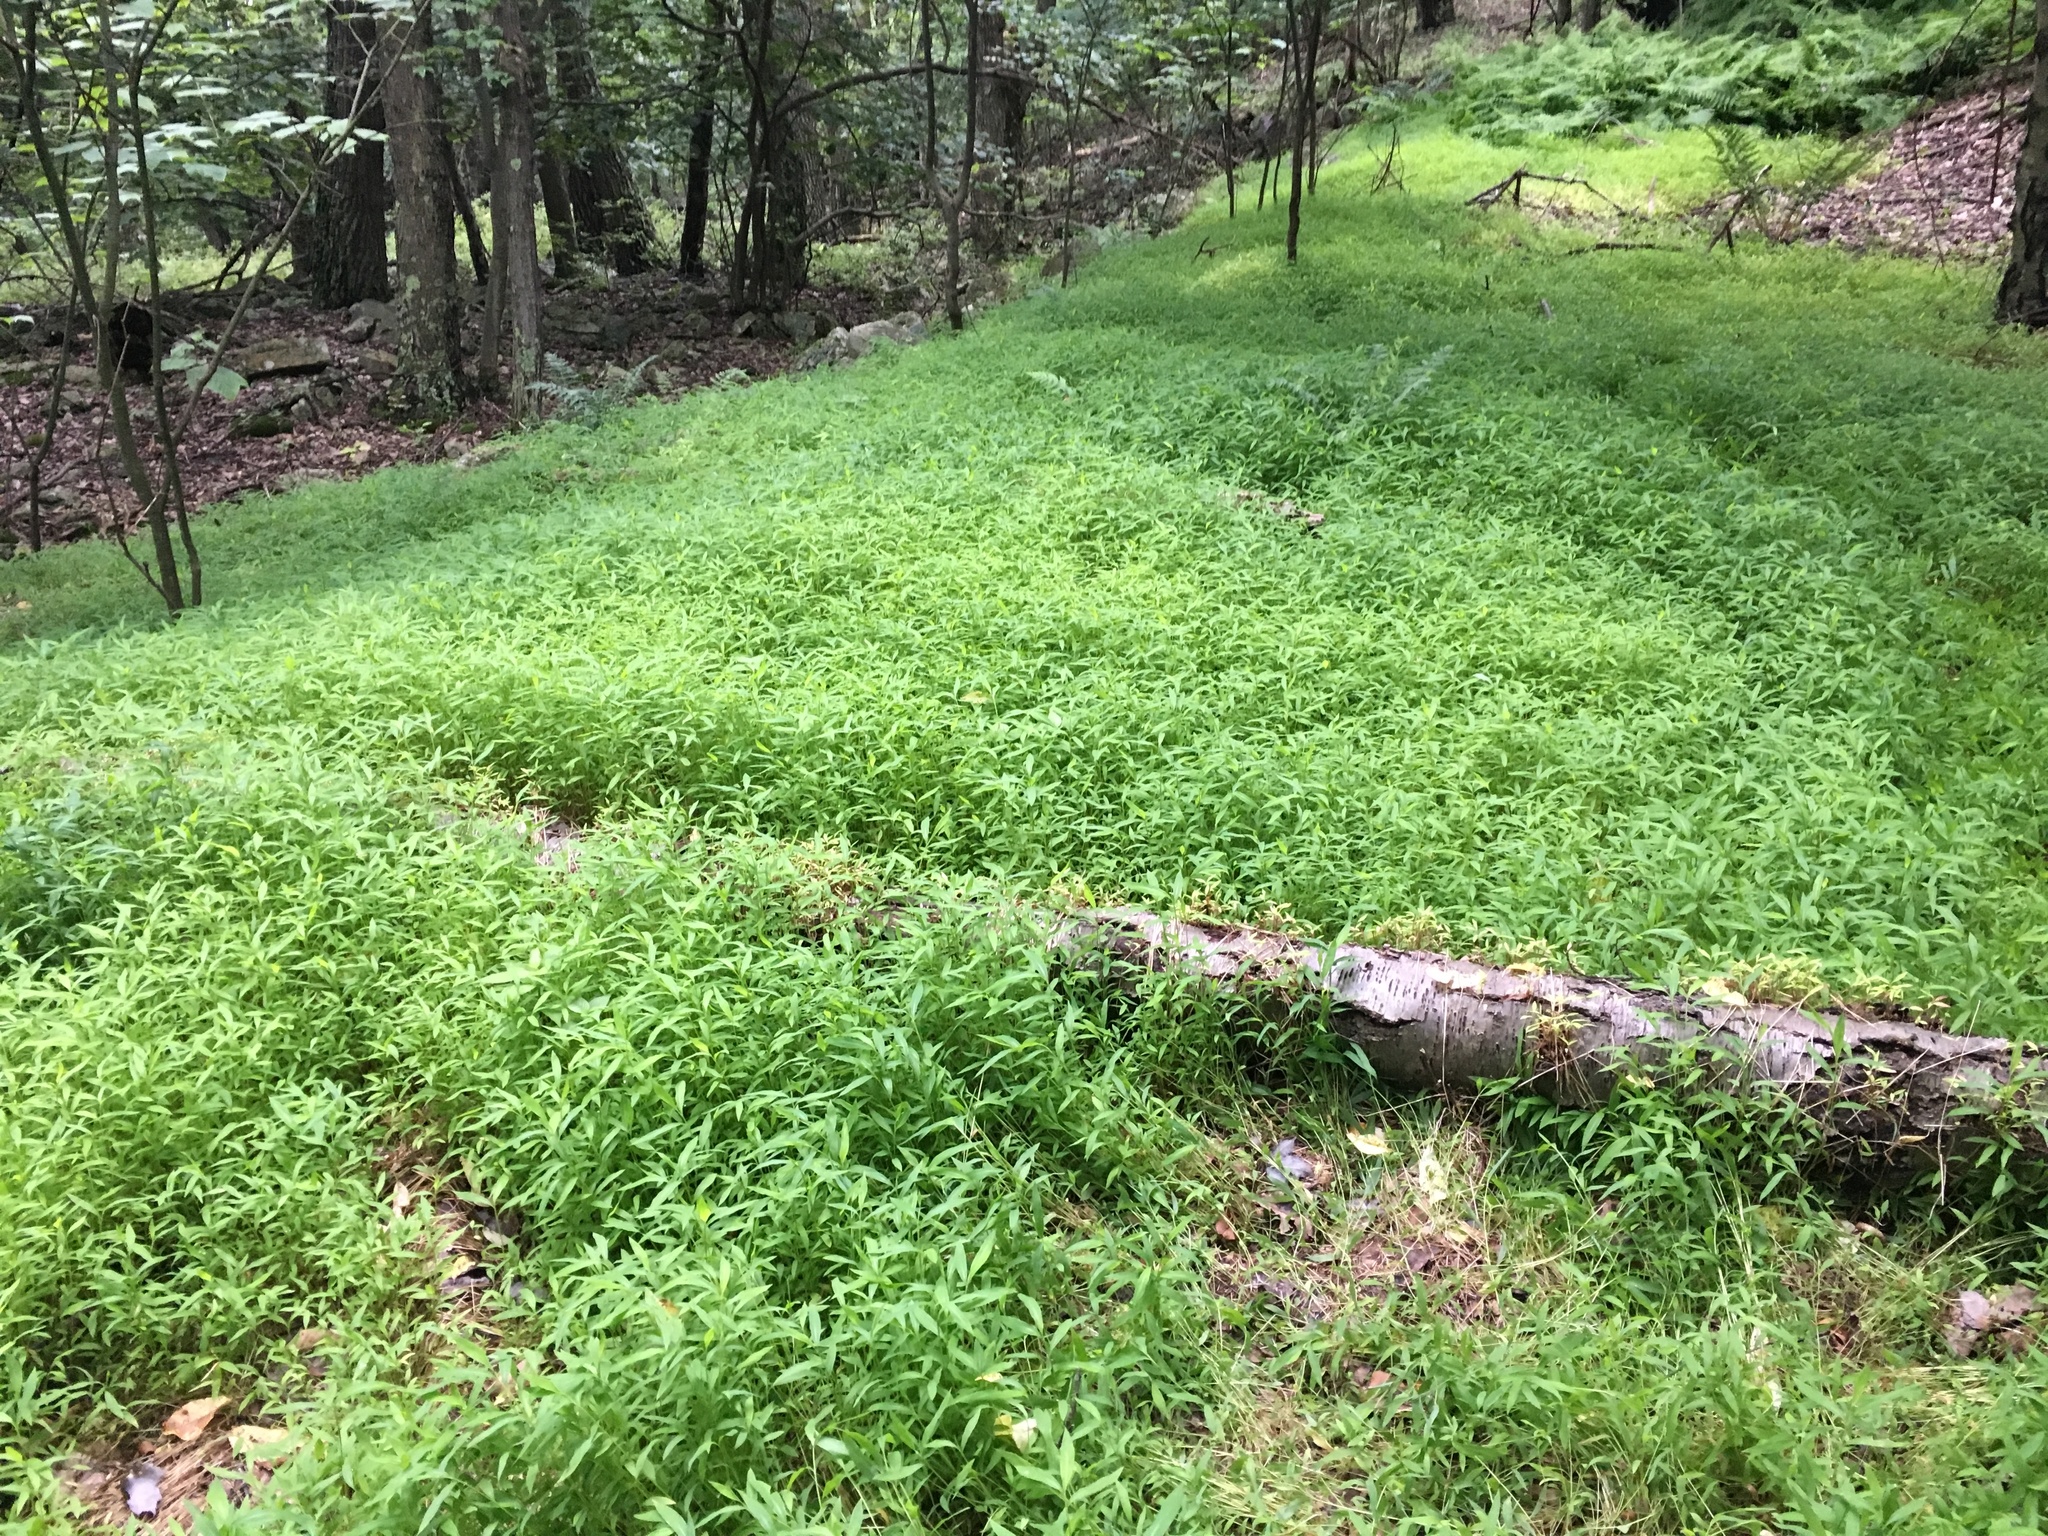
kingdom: Plantae
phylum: Tracheophyta
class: Liliopsida
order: Poales
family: Poaceae
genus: Microstegium
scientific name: Microstegium vimineum
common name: Japanese stiltgrass
